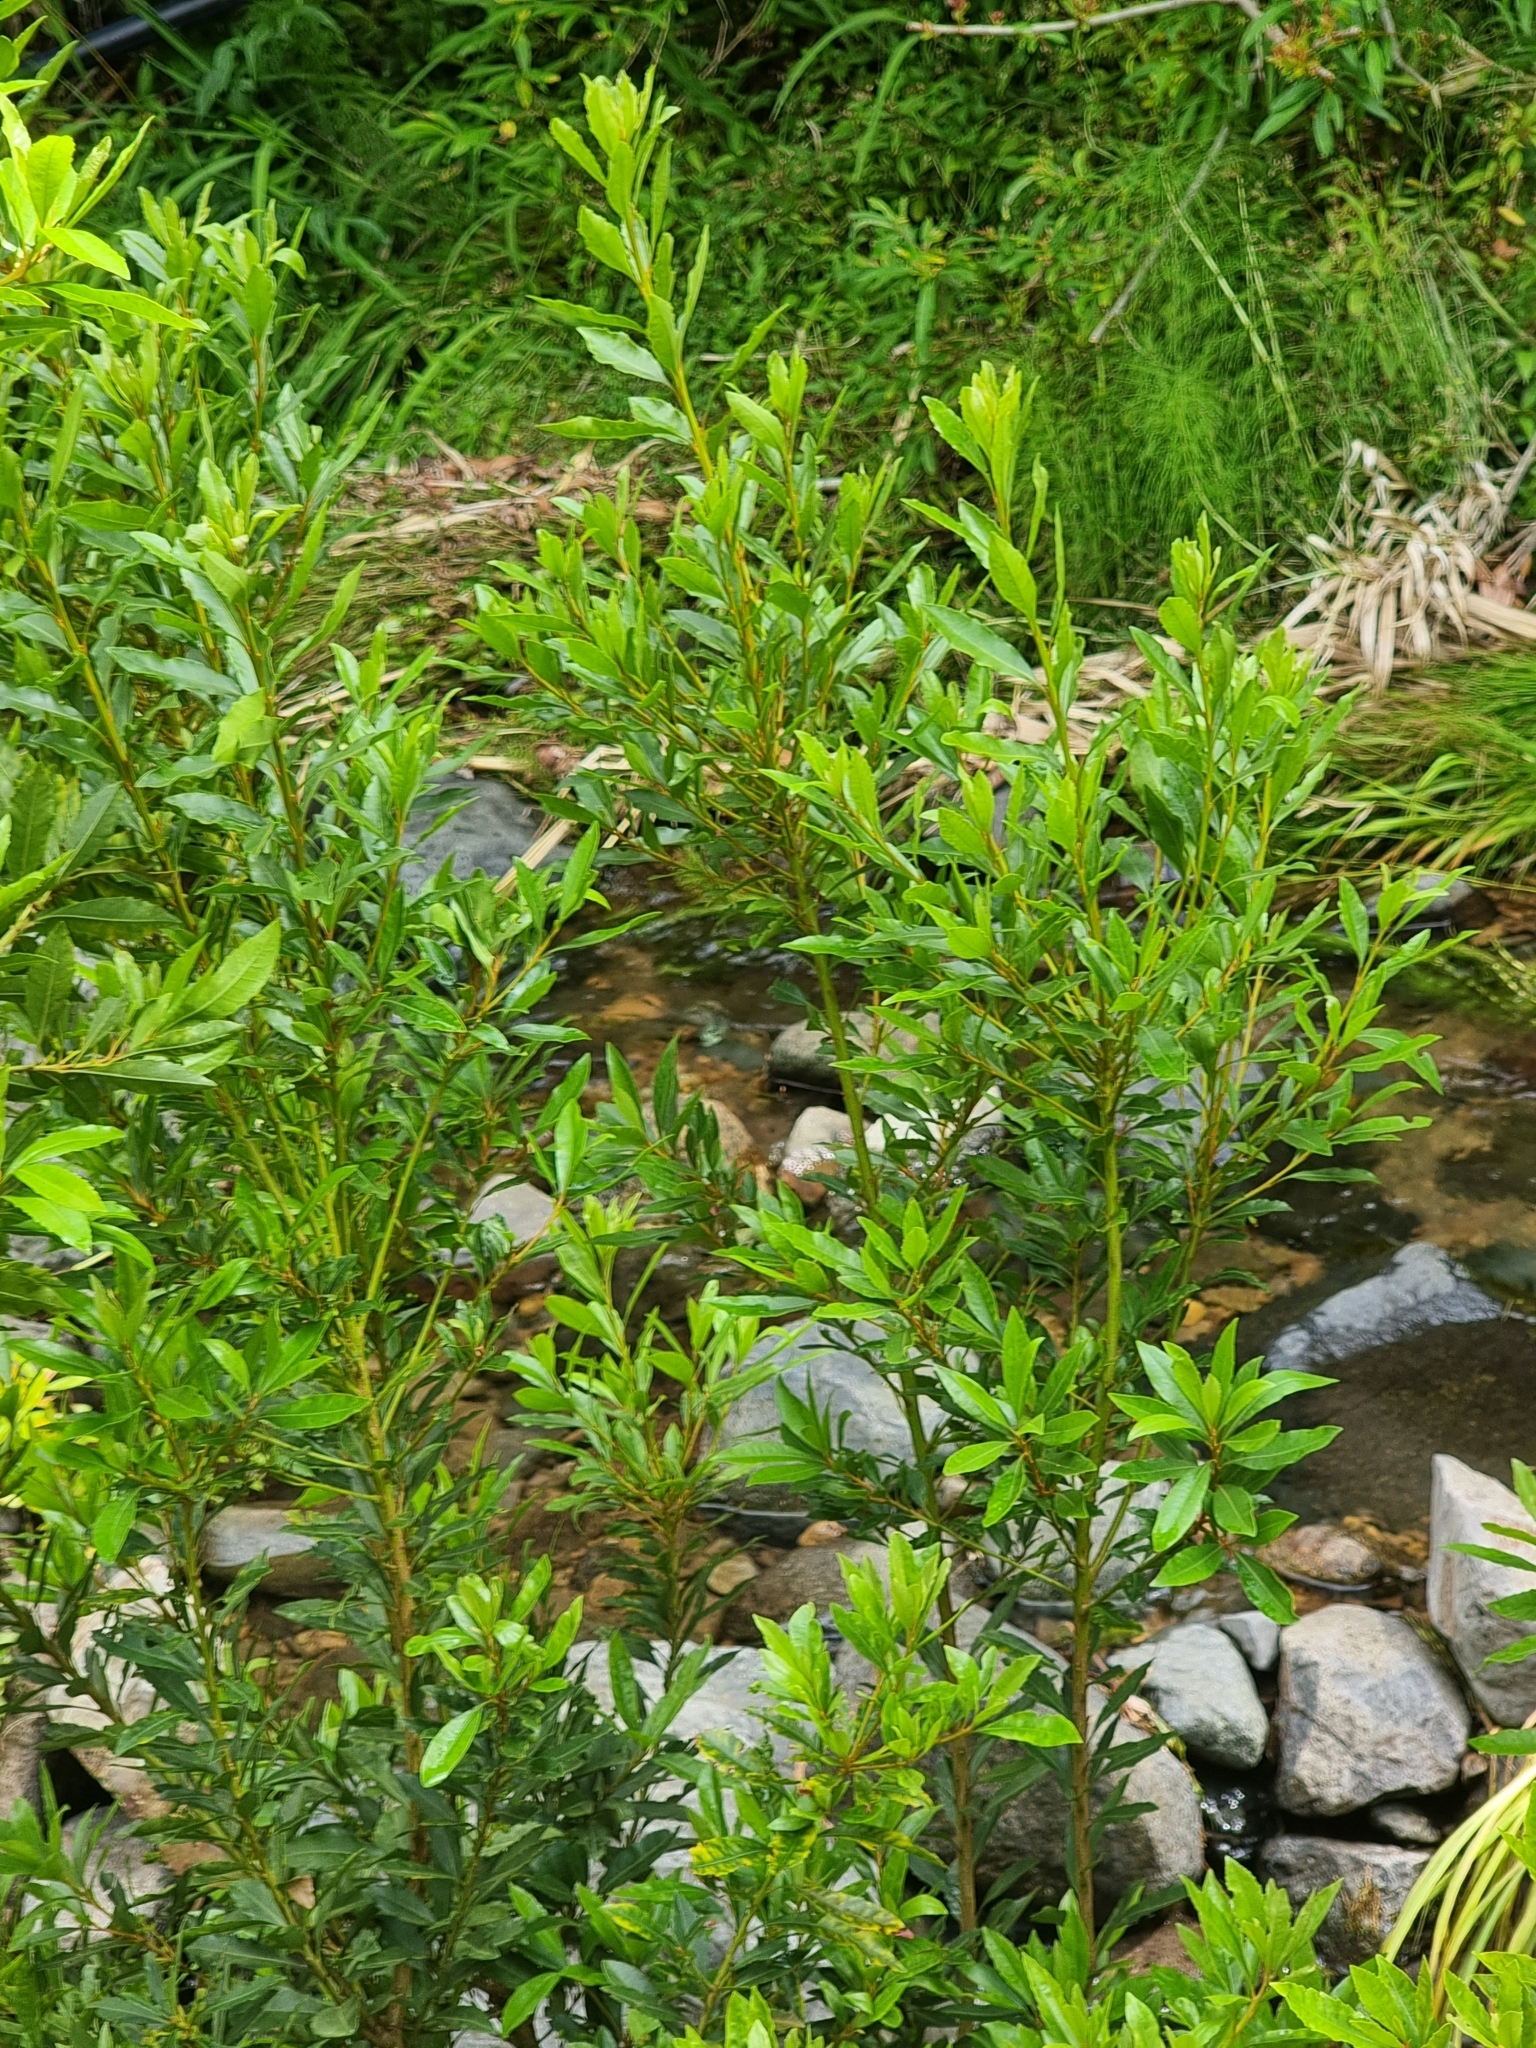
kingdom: Plantae
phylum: Tracheophyta
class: Magnoliopsida
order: Fagales
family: Myricaceae
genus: Morella
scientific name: Morella faya
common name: Firetree
